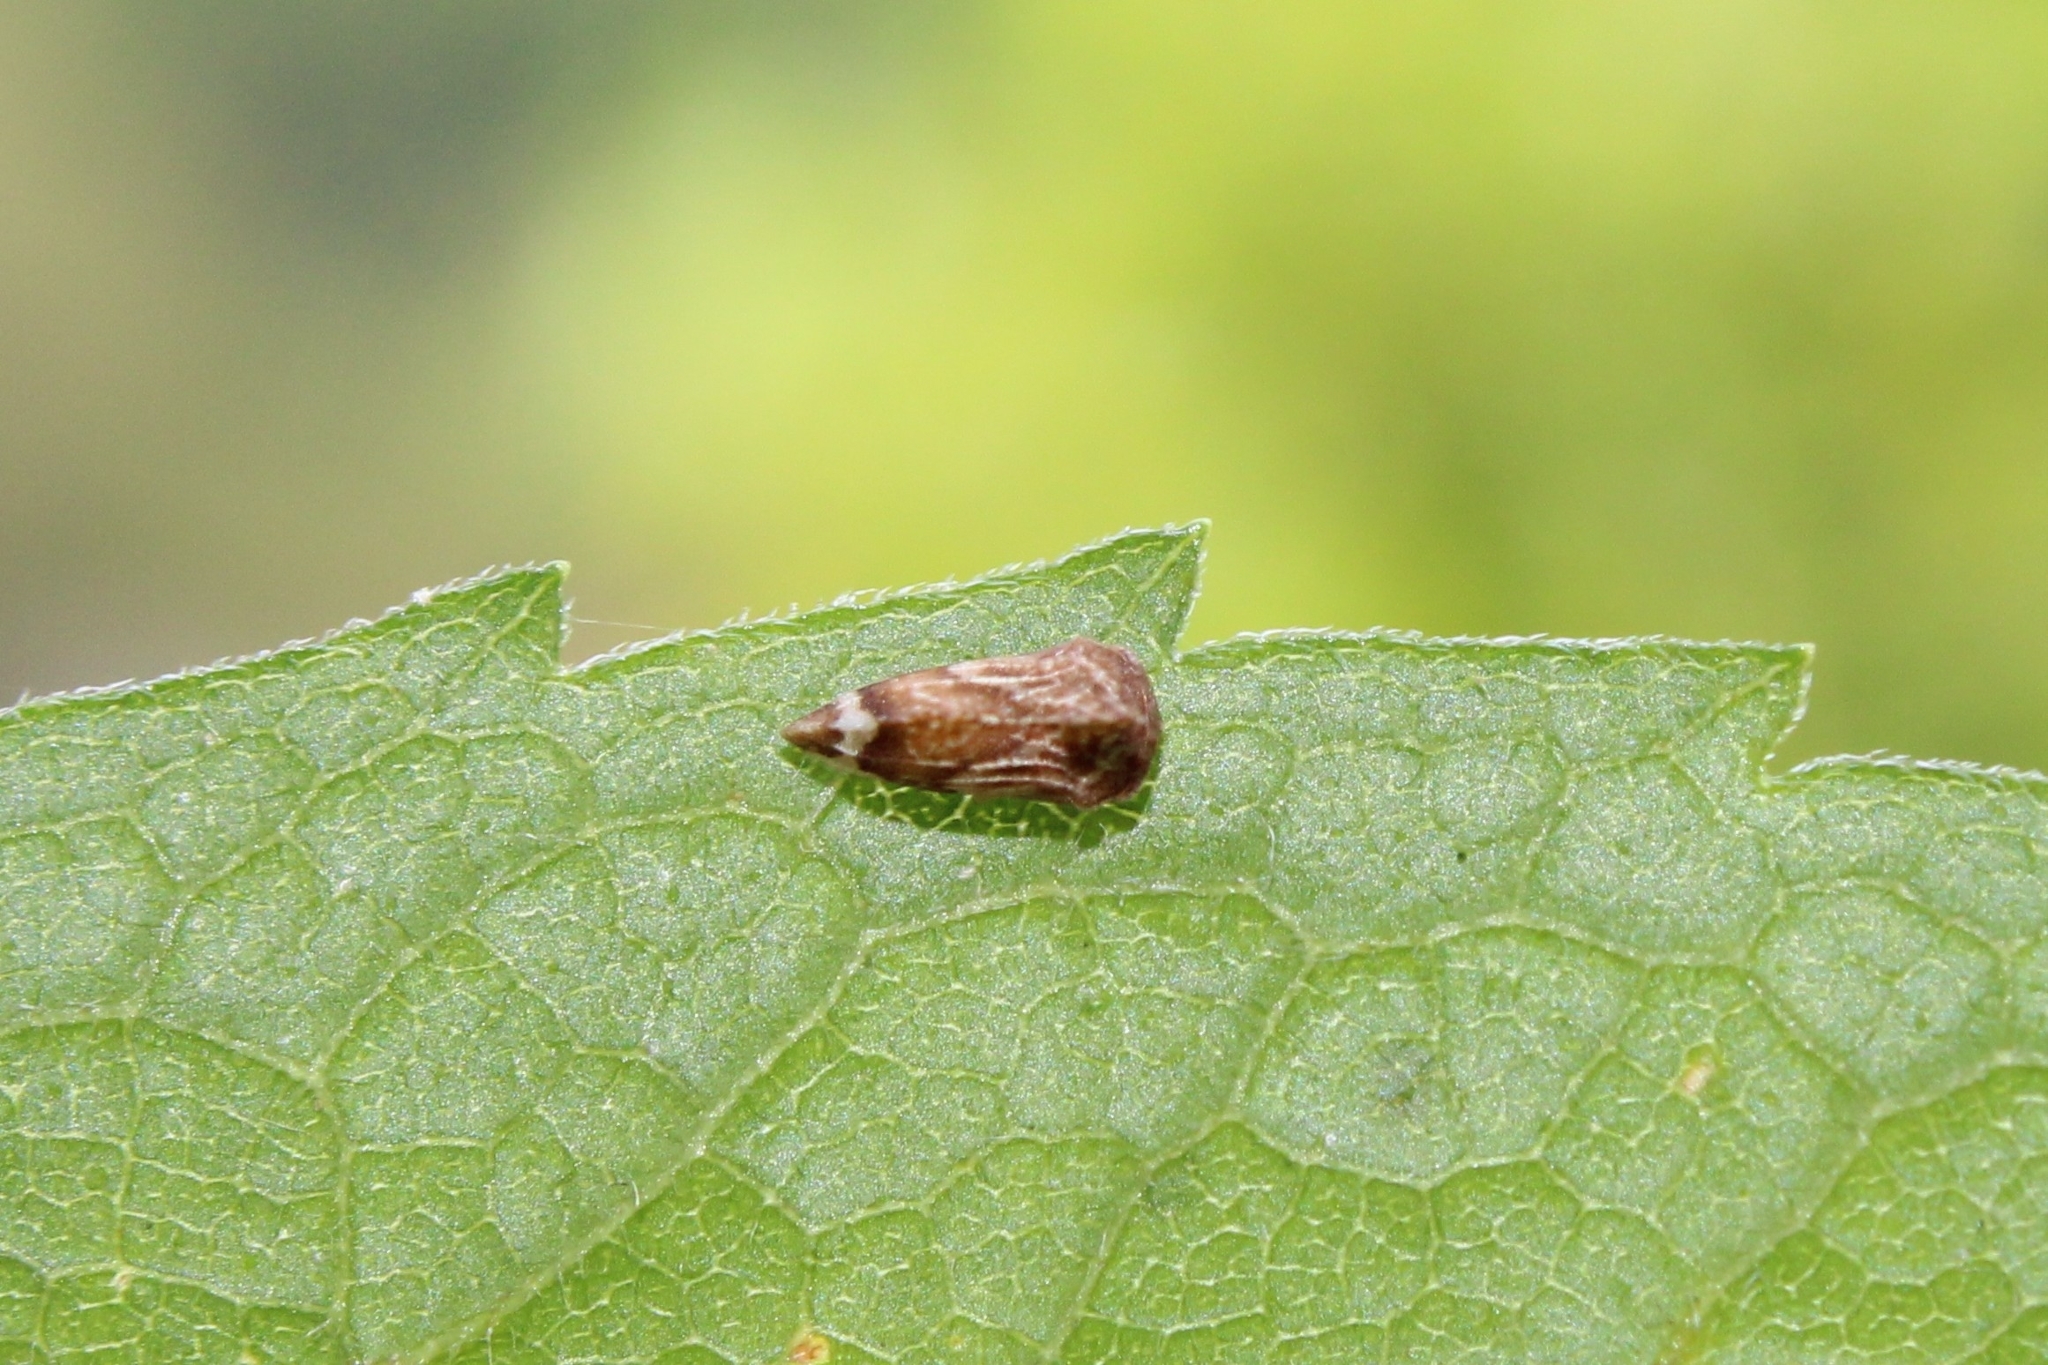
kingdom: Animalia
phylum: Arthropoda
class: Insecta
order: Hemiptera
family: Membracidae
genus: Entylia
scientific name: Entylia carinata
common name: Keeled treehopper
